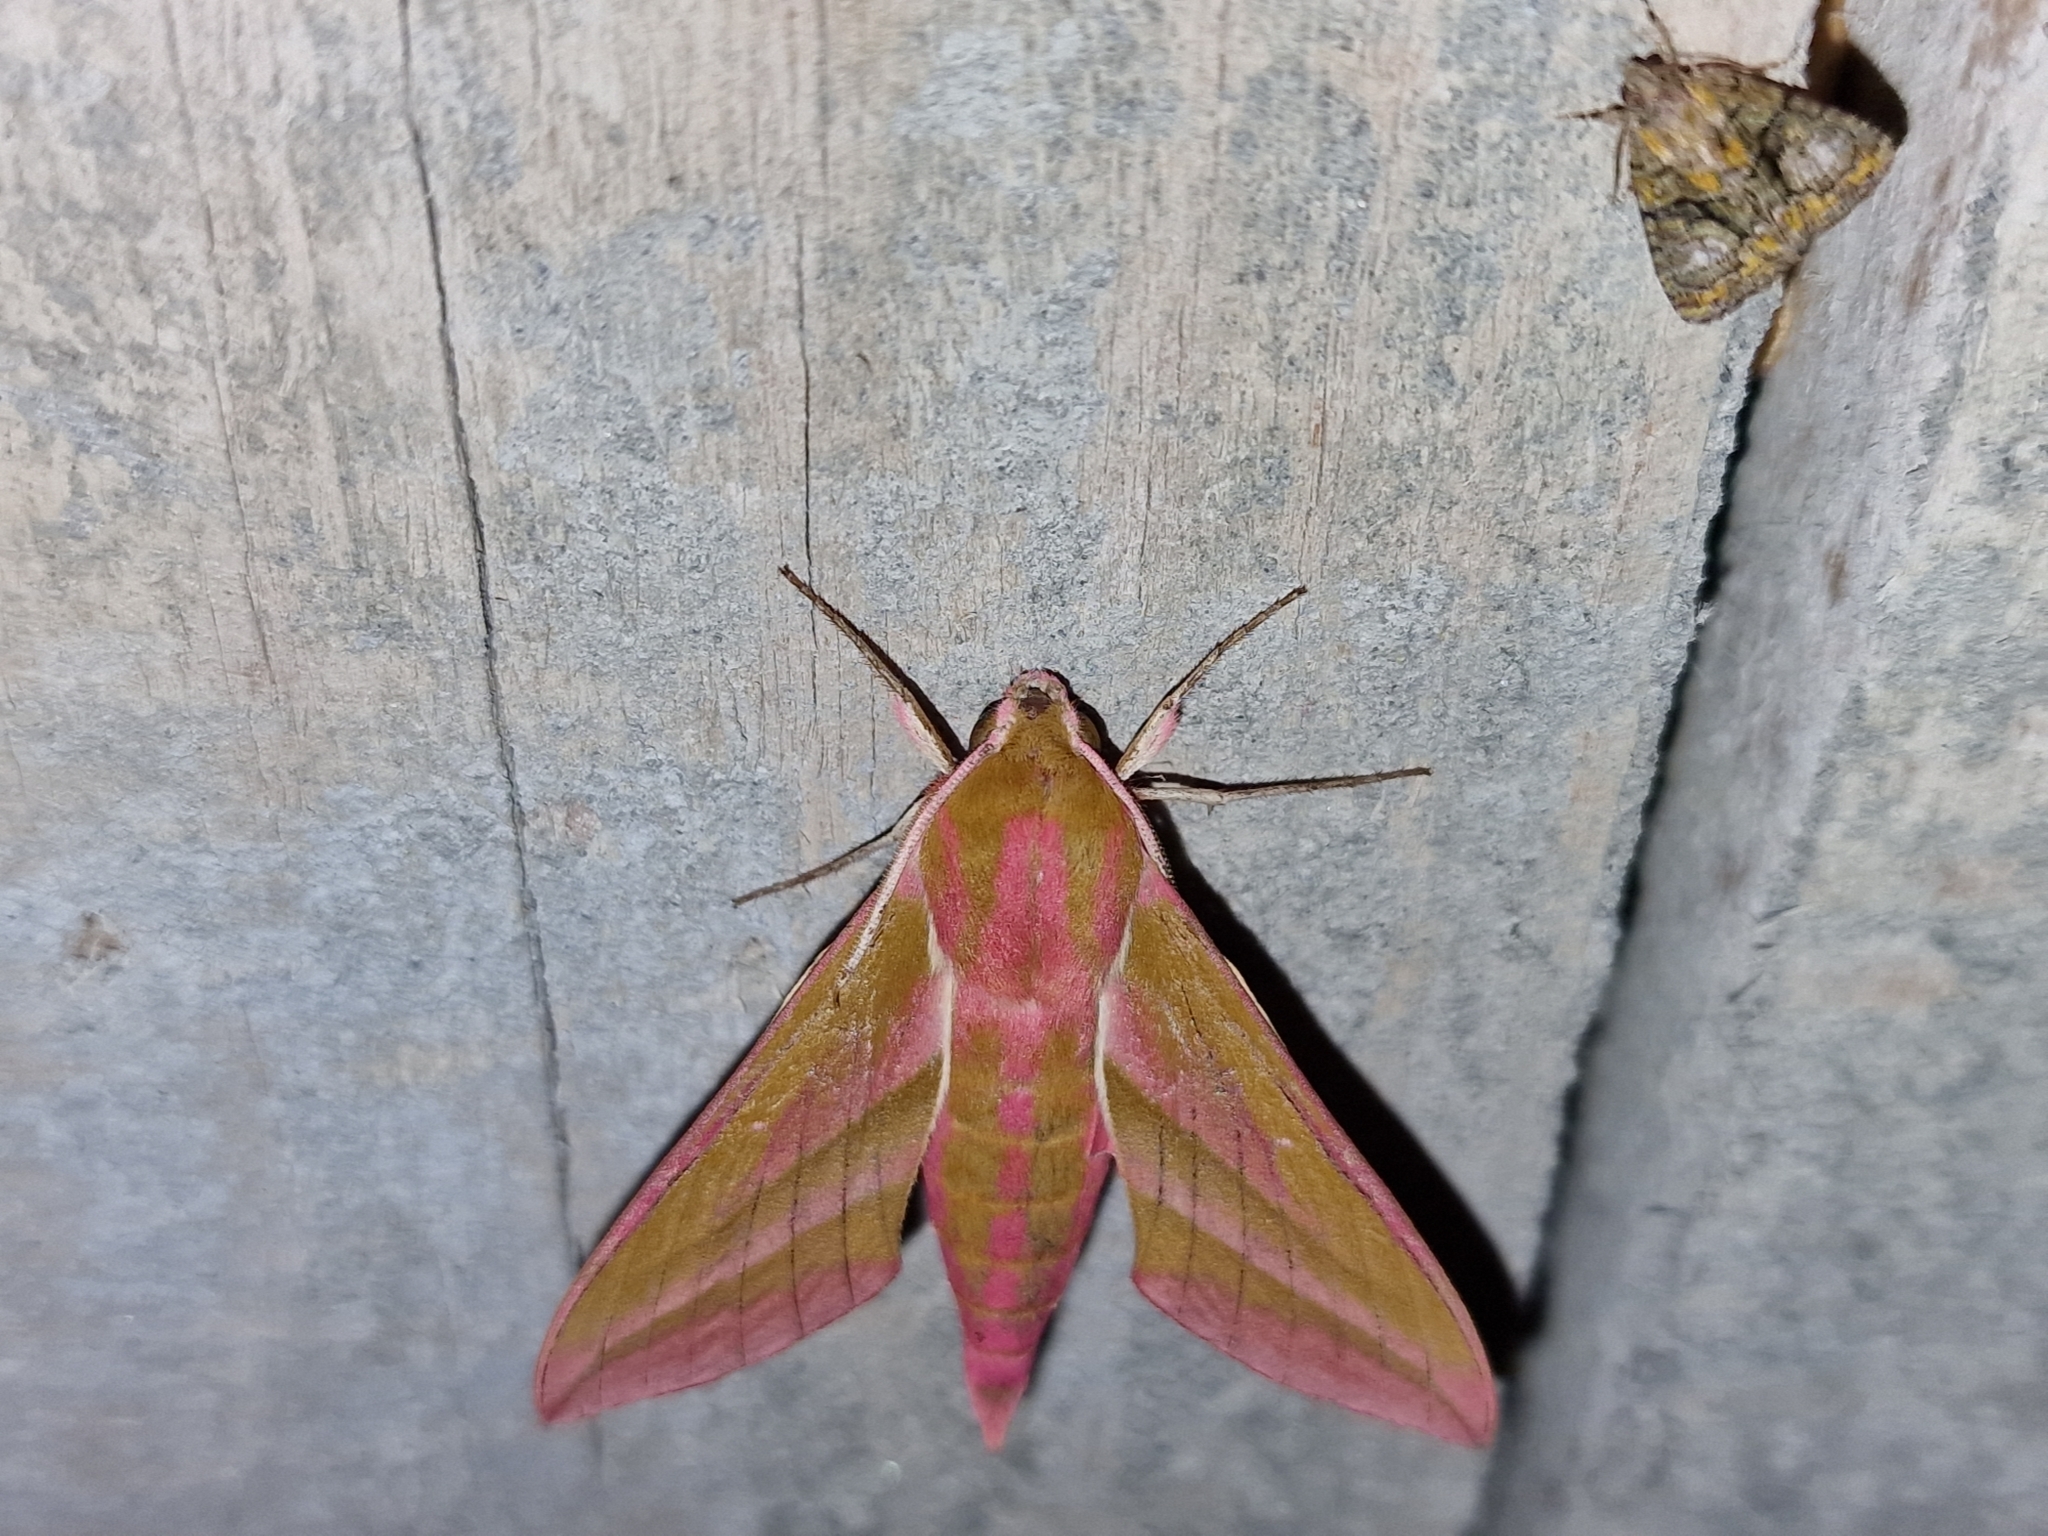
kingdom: Animalia
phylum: Arthropoda
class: Insecta
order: Lepidoptera
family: Sphingidae
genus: Deilephila
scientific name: Deilephila elpenor
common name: Elephant hawk-moth
